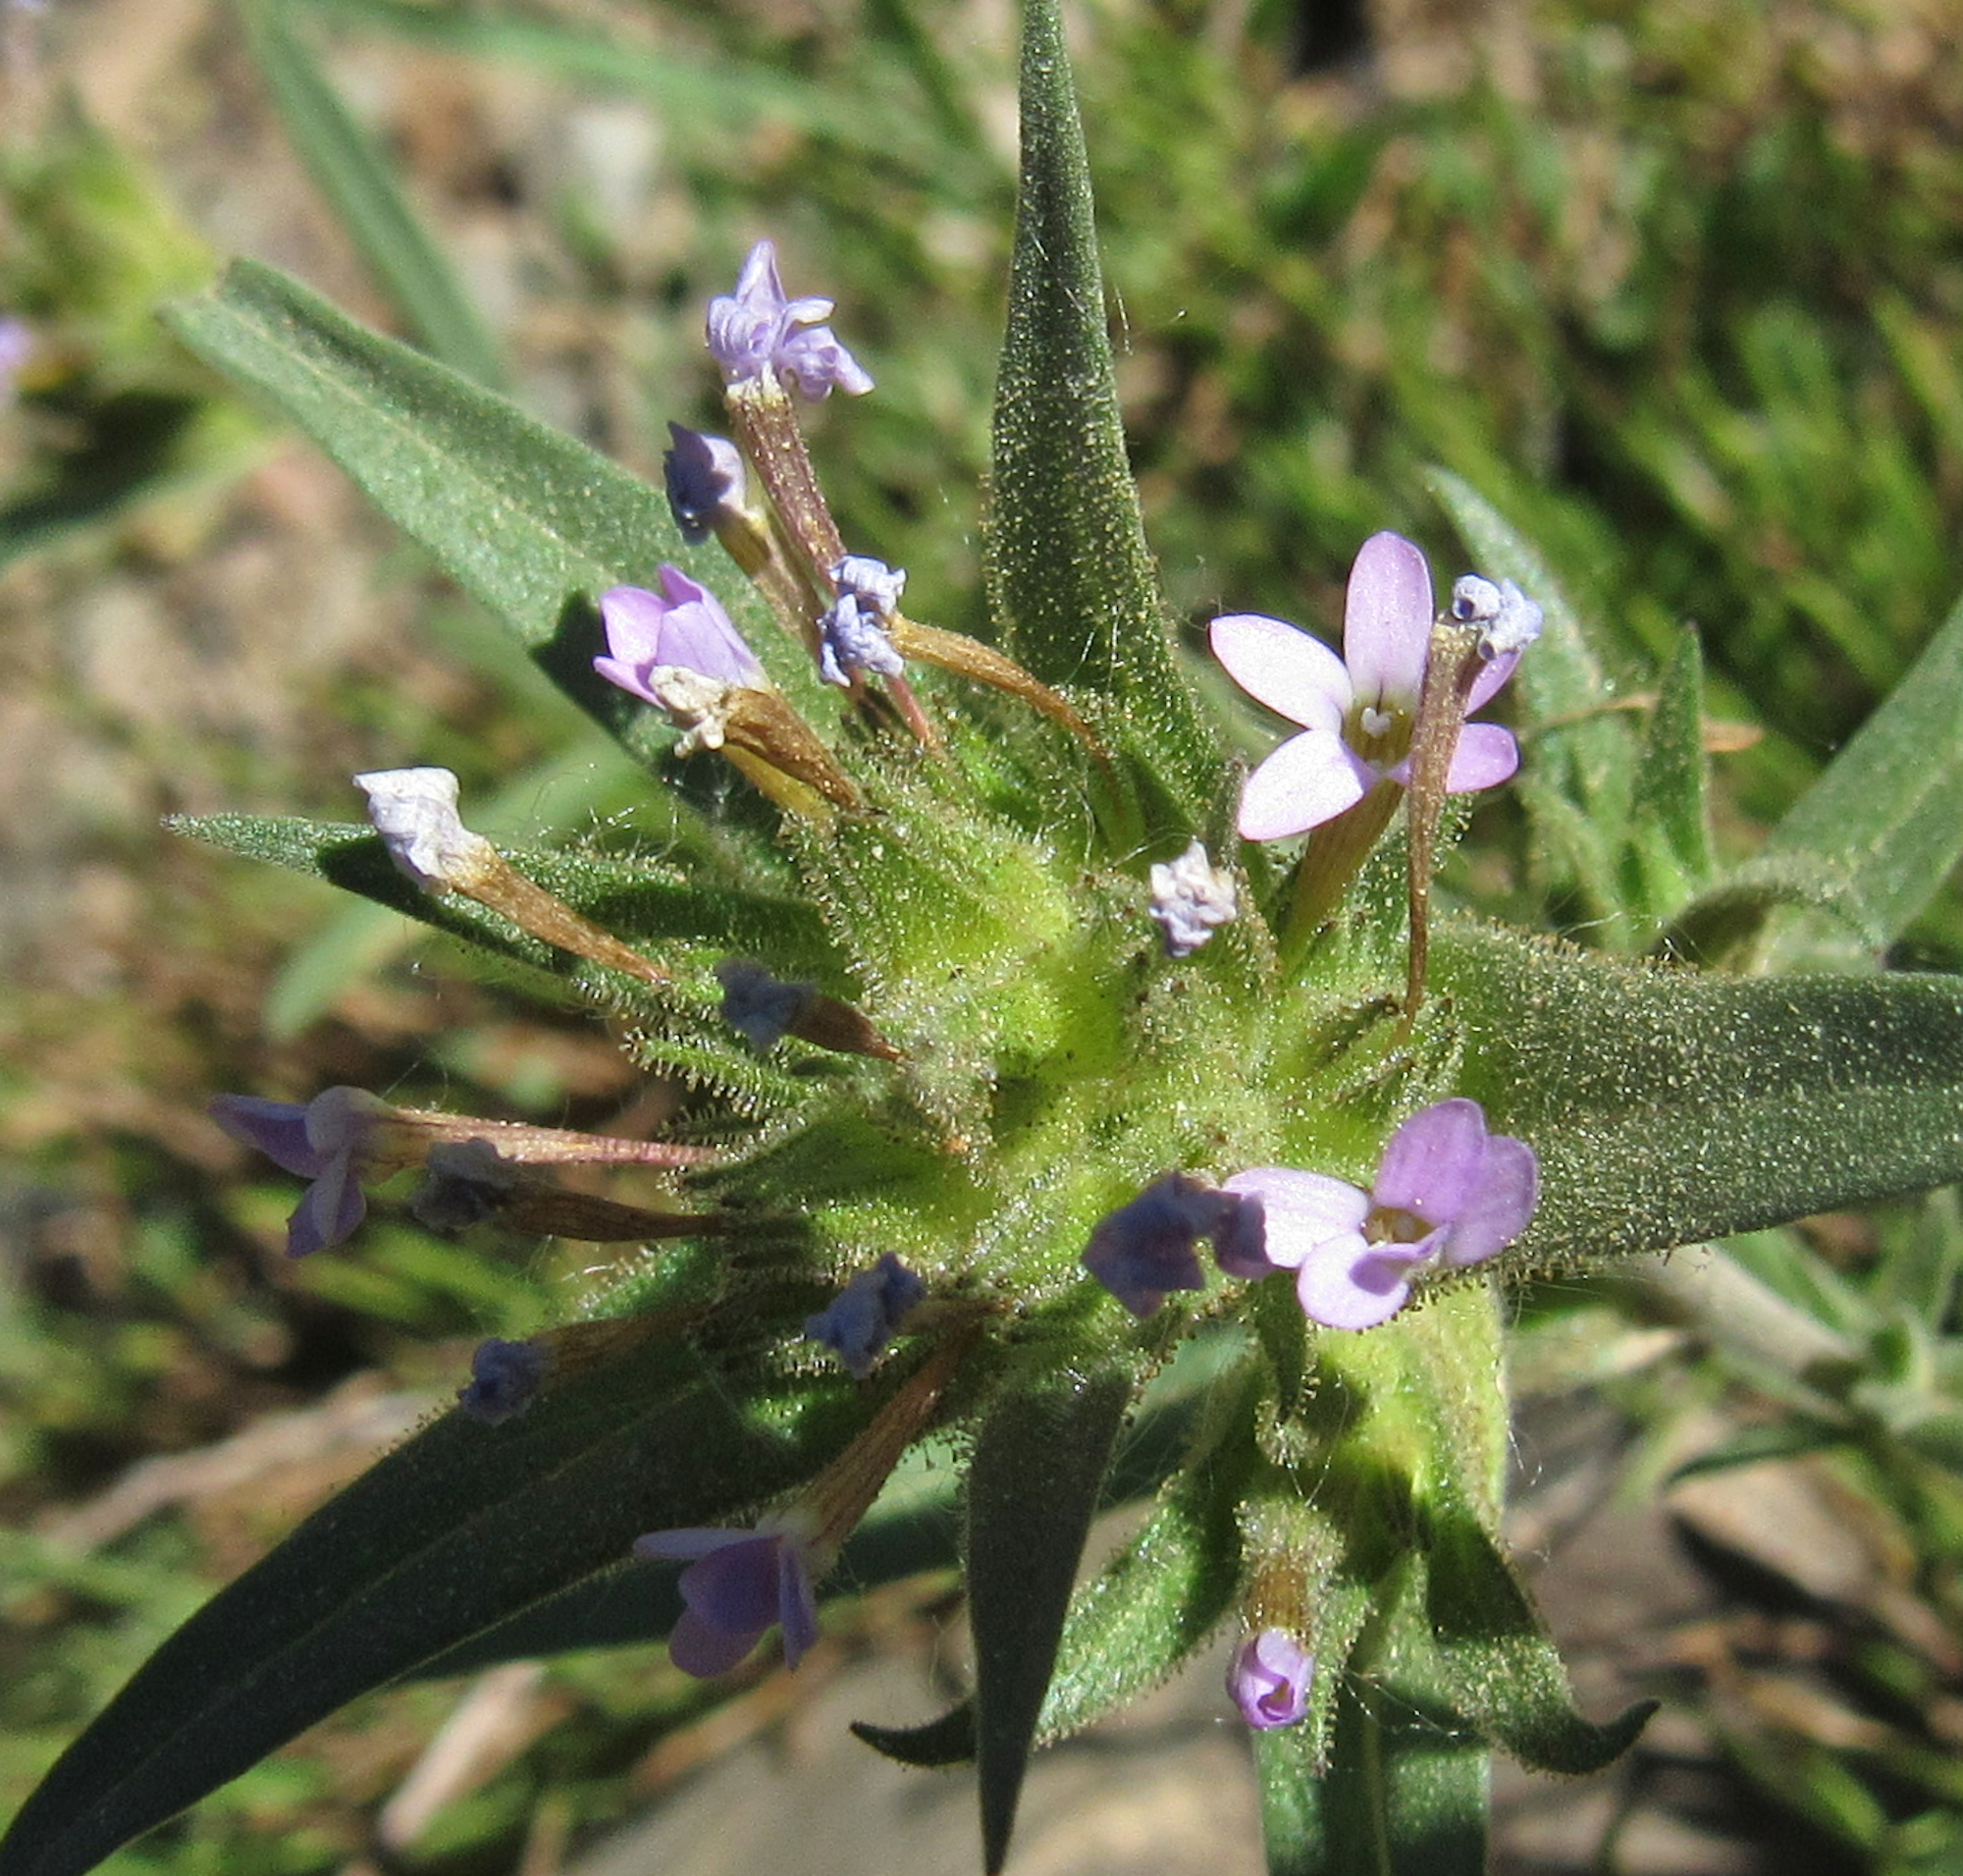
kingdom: Plantae
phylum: Tracheophyta
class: Magnoliopsida
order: Ericales
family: Polemoniaceae
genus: Collomia
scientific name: Collomia linearis
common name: Tiny trumpet
